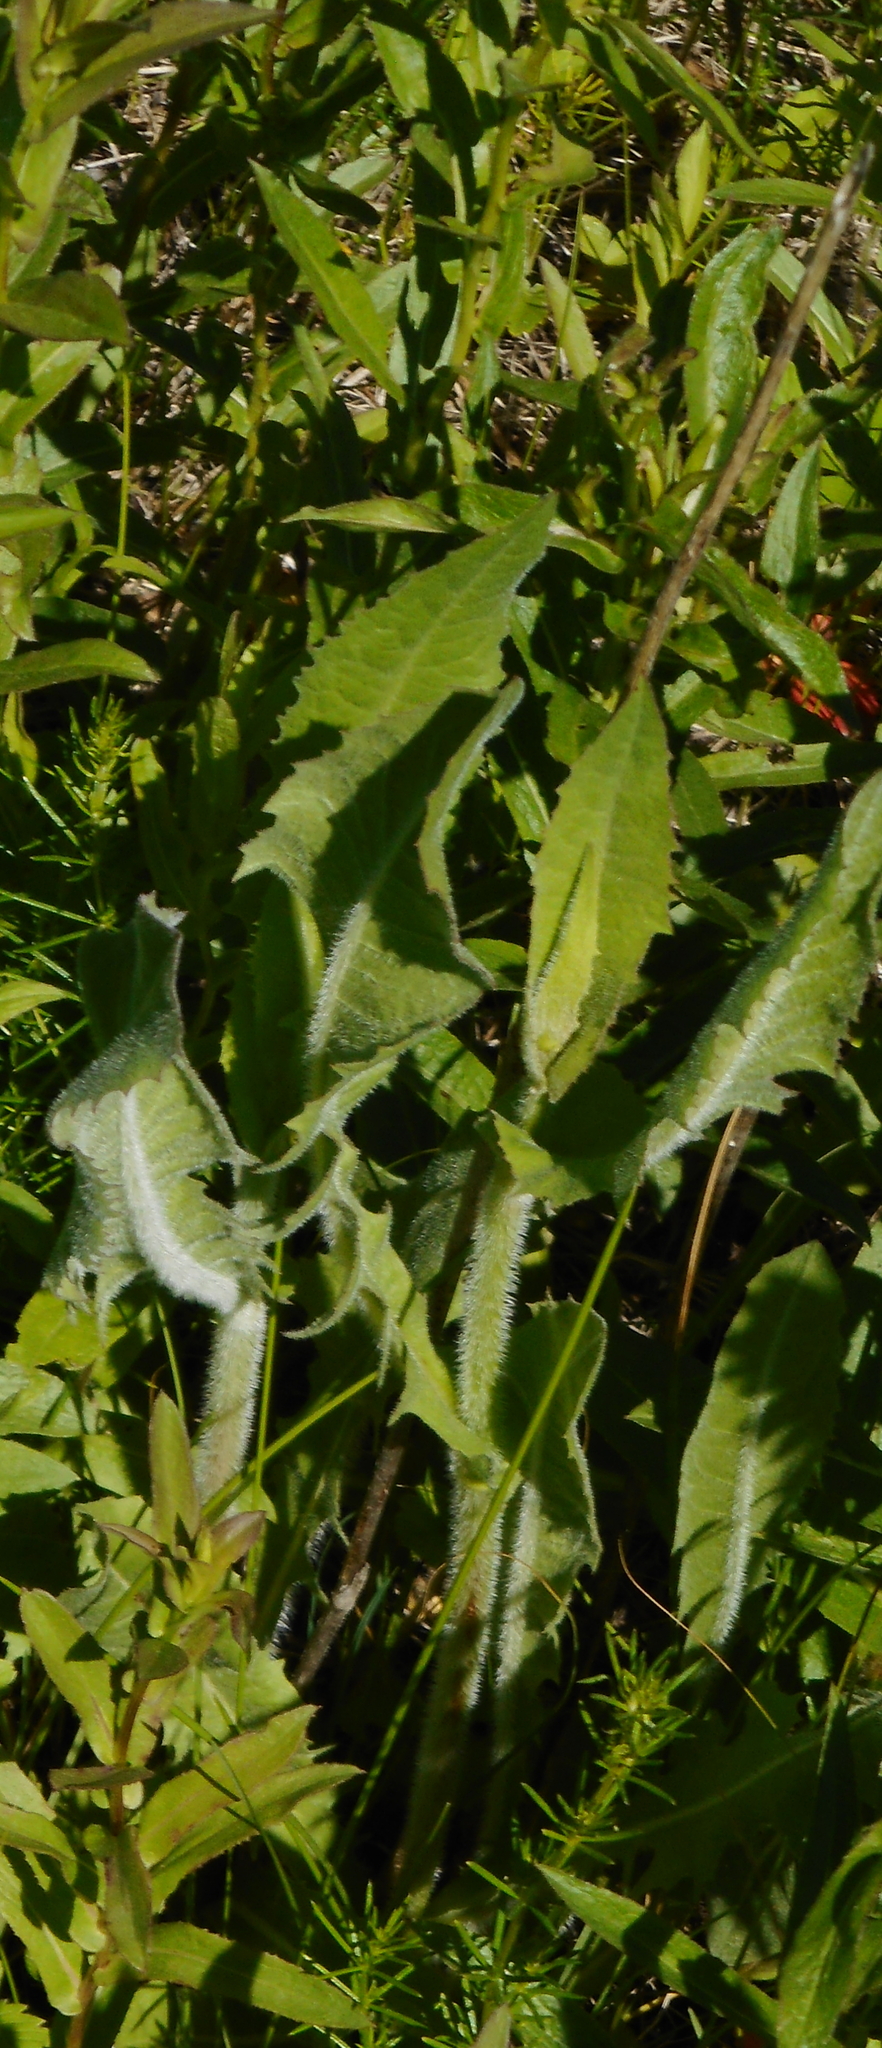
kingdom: Plantae
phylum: Tracheophyta
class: Magnoliopsida
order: Asterales
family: Asteraceae
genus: Cichorium
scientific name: Cichorium intybus
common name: Chicory
